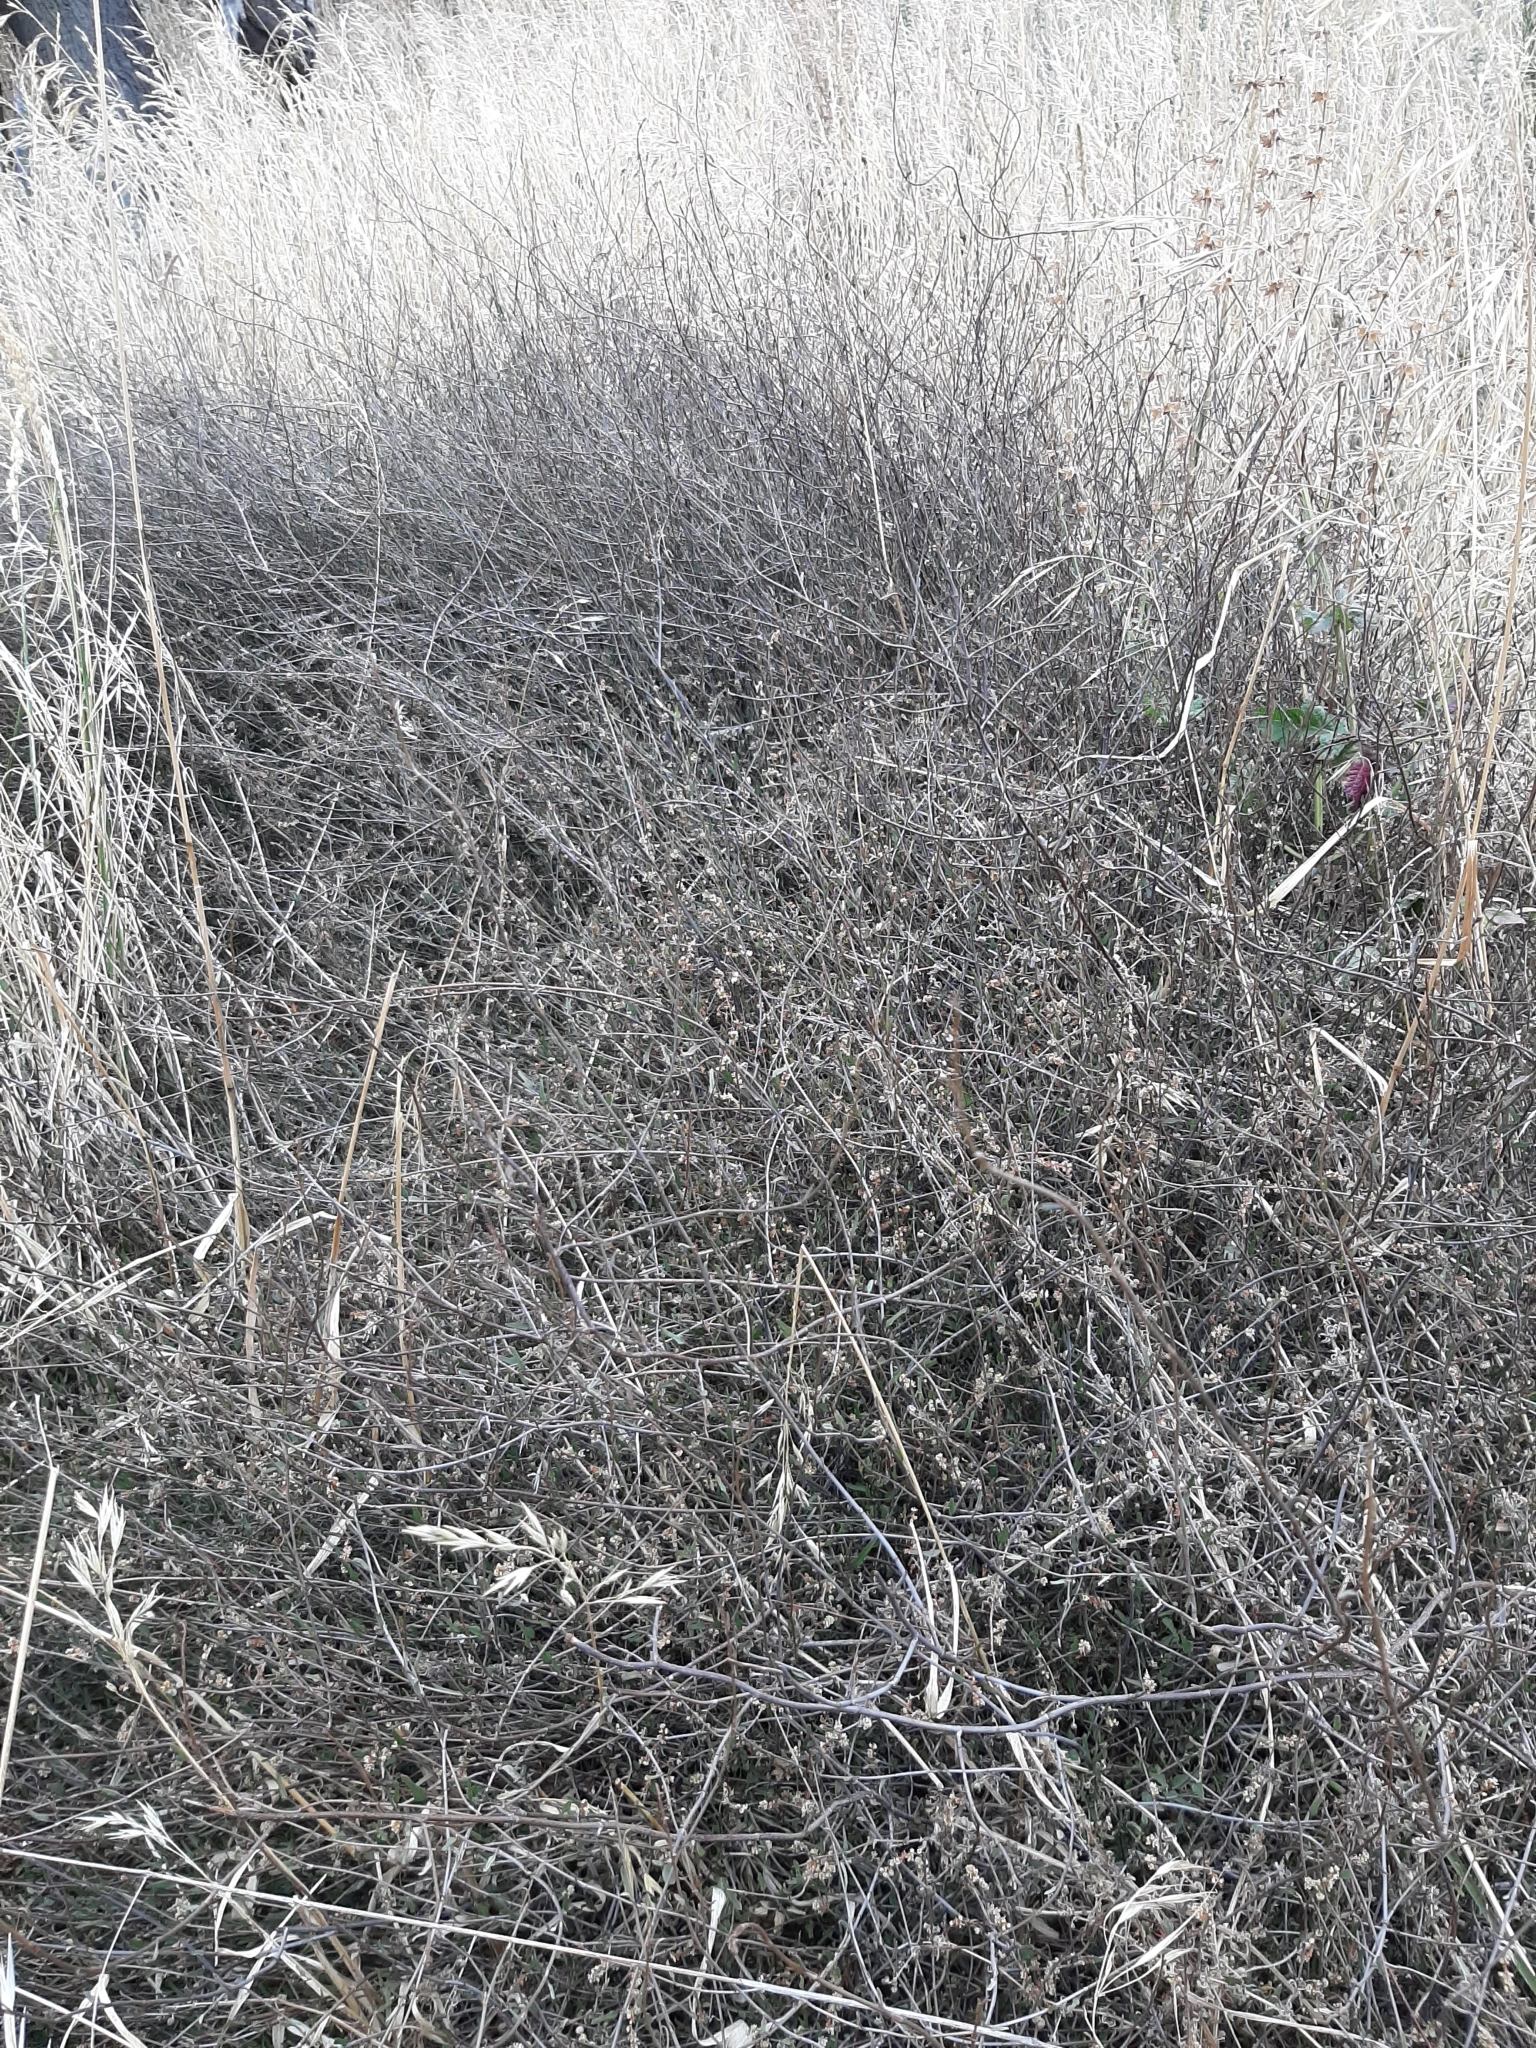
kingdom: Plantae
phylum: Tracheophyta
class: Magnoliopsida
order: Caryophyllales
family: Polygonaceae
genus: Muehlenbeckia
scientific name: Muehlenbeckia ephedroides
